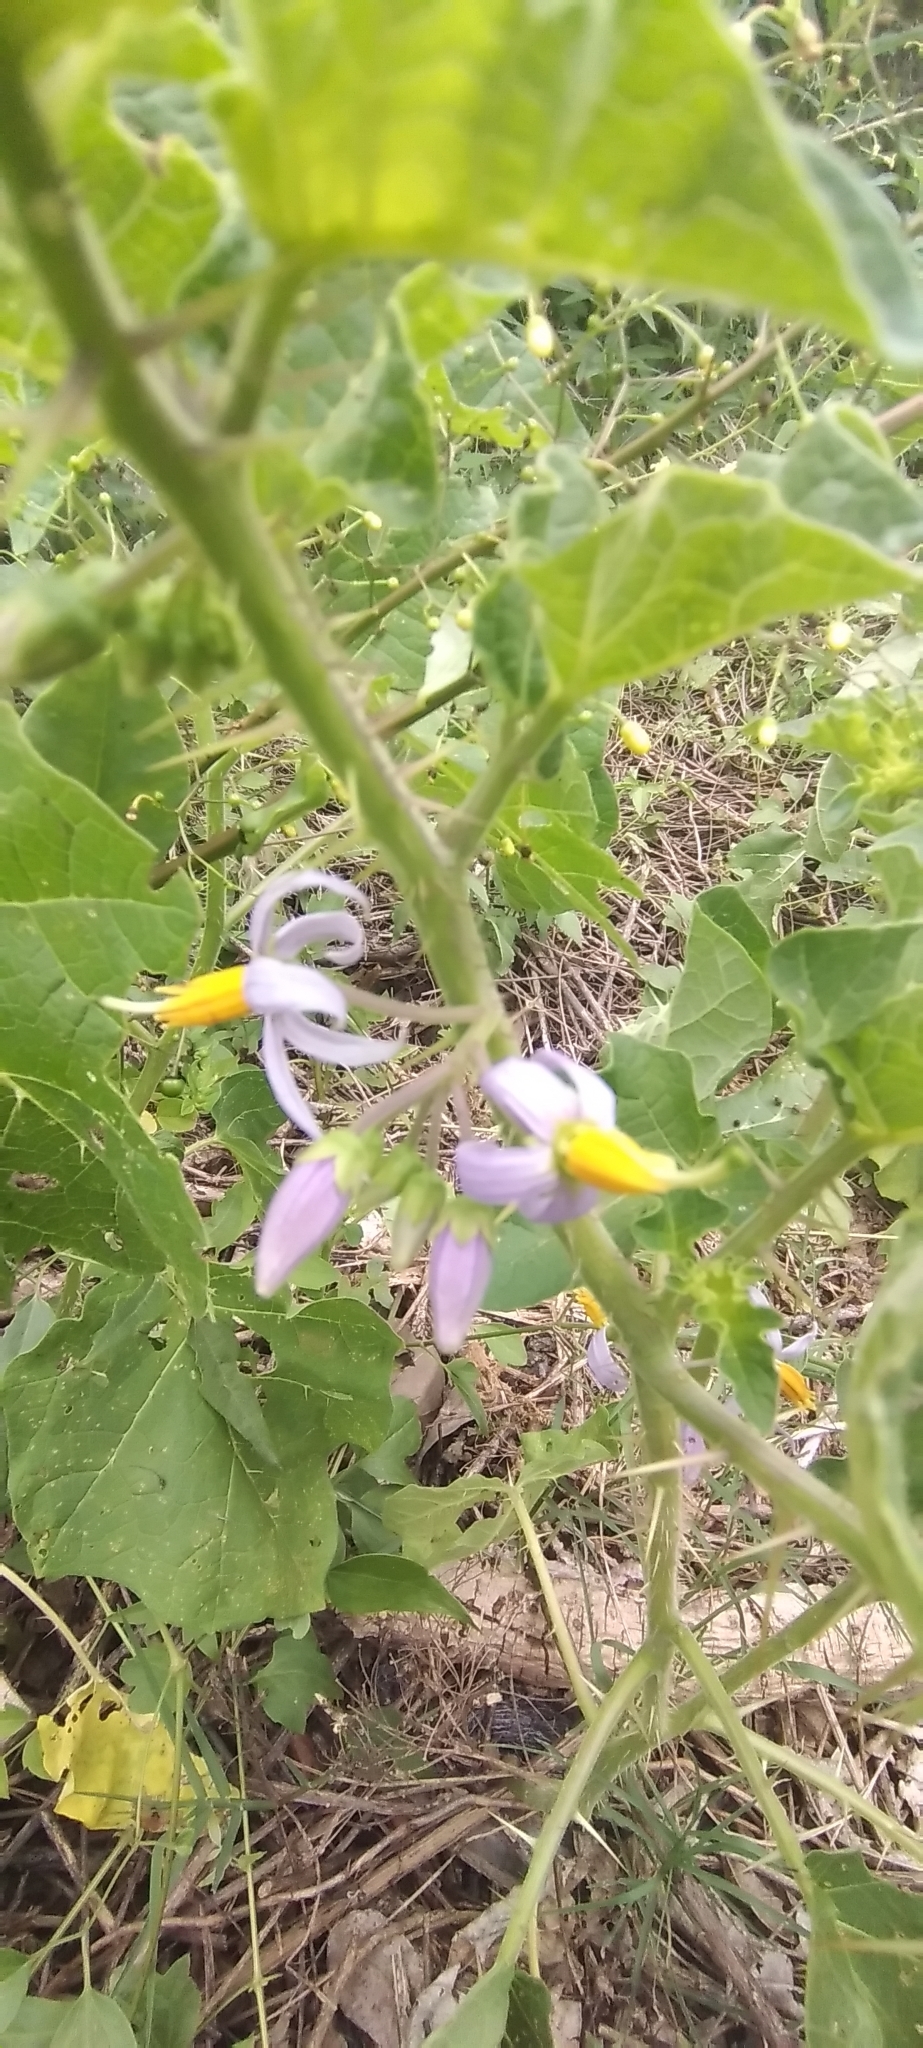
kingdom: Plantae
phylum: Tracheophyta
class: Magnoliopsida
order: Solanales
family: Solanaceae
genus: Solanum
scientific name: Solanum palinacanthum
